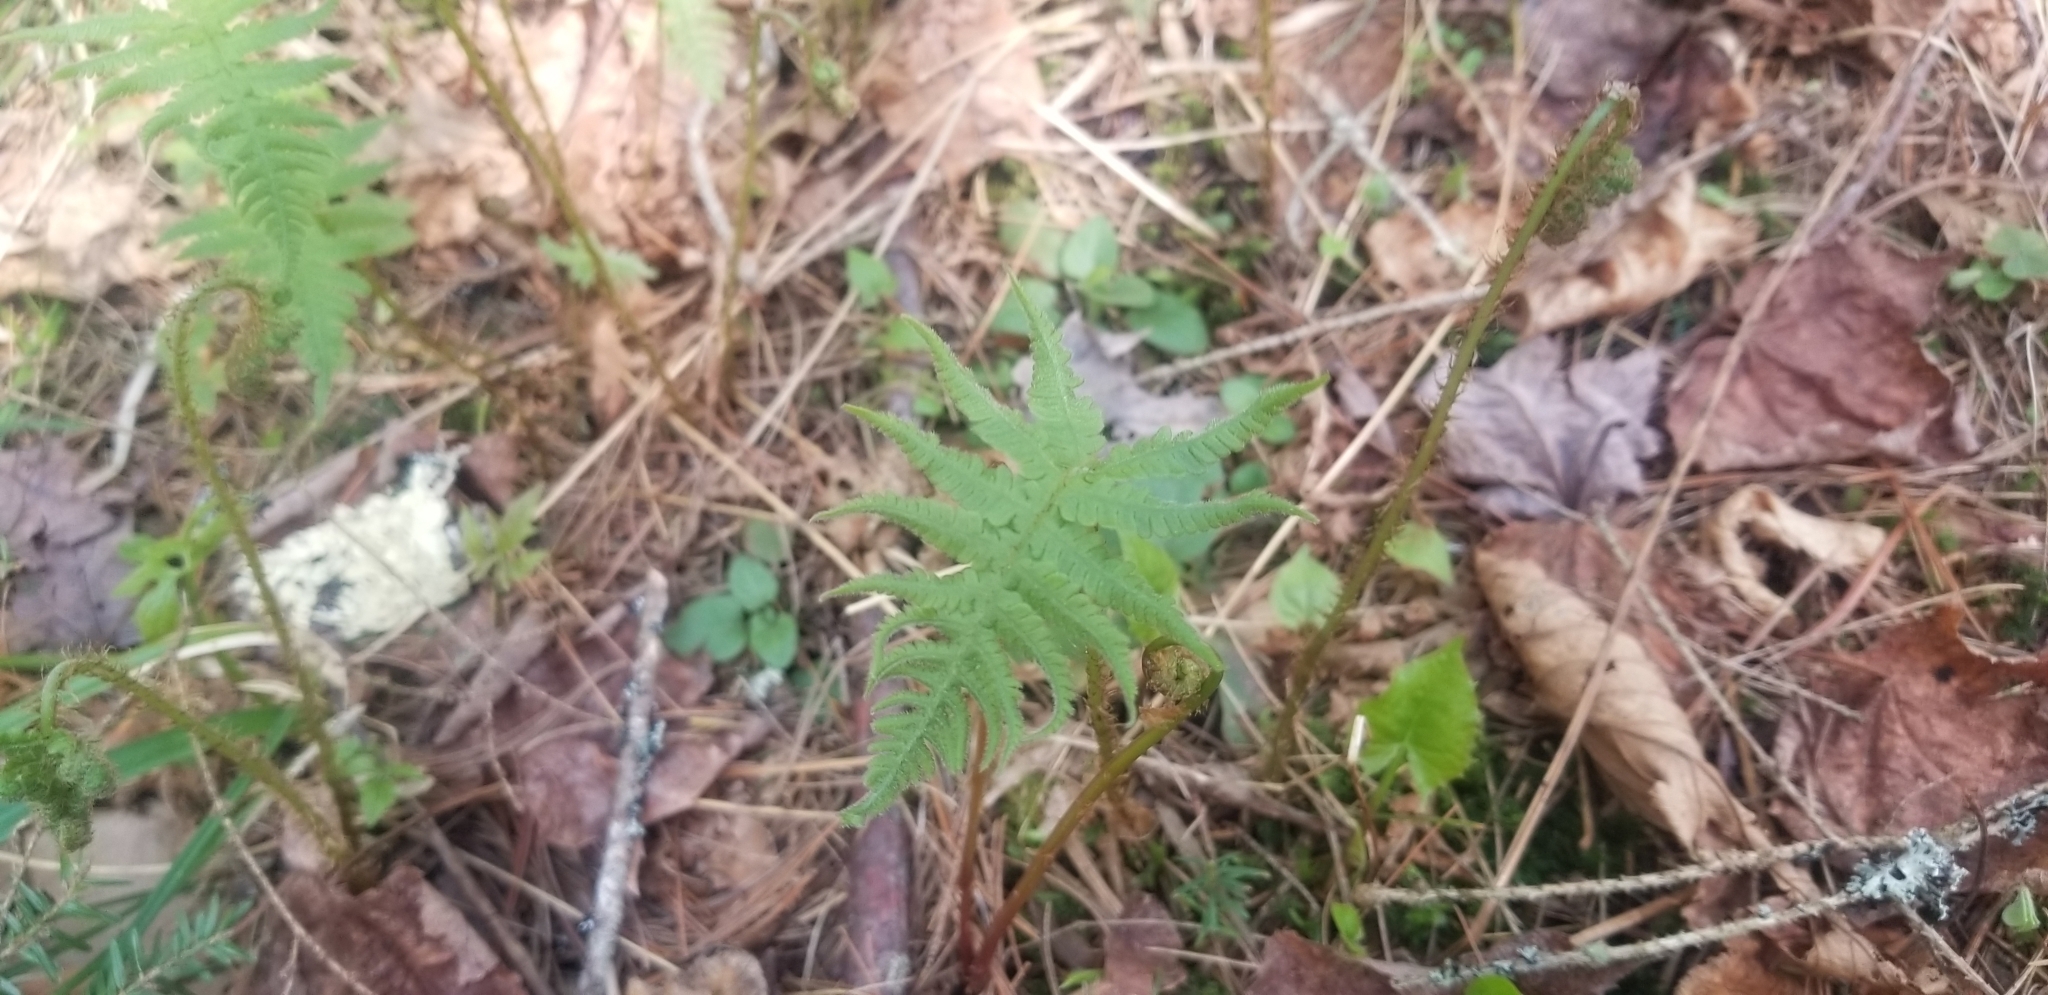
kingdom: Plantae
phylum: Tracheophyta
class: Polypodiopsida
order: Polypodiales
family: Thelypteridaceae
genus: Phegopteris
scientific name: Phegopteris connectilis
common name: Beech fern
